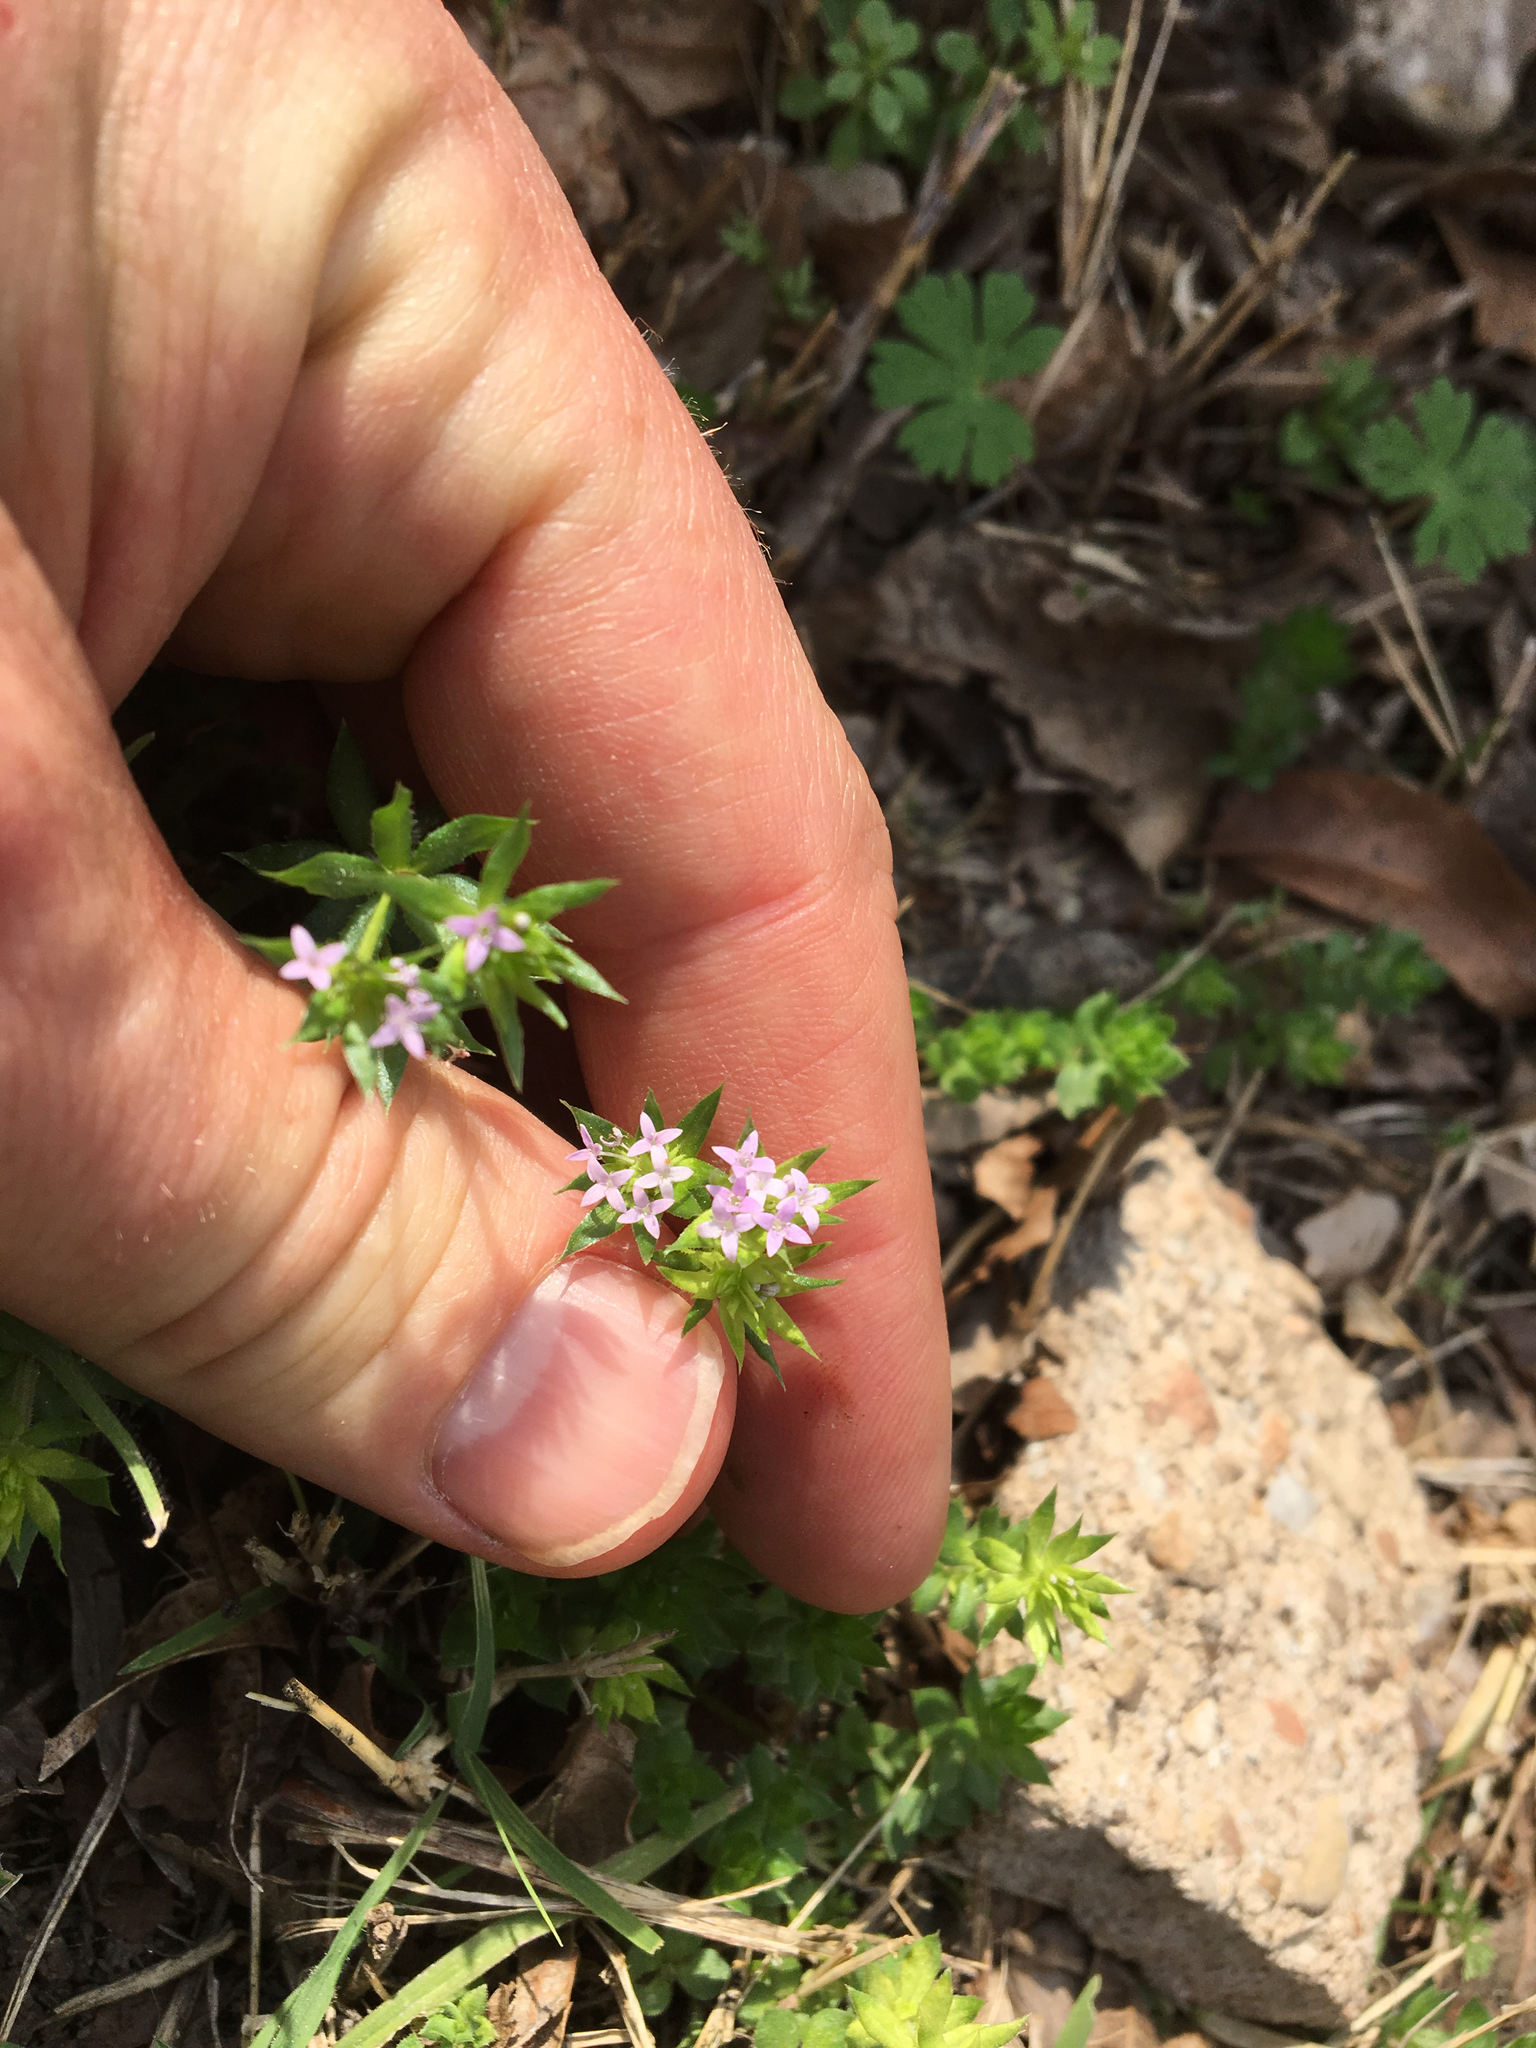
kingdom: Plantae
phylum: Tracheophyta
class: Magnoliopsida
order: Gentianales
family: Rubiaceae
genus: Sherardia
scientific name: Sherardia arvensis
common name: Field madder
